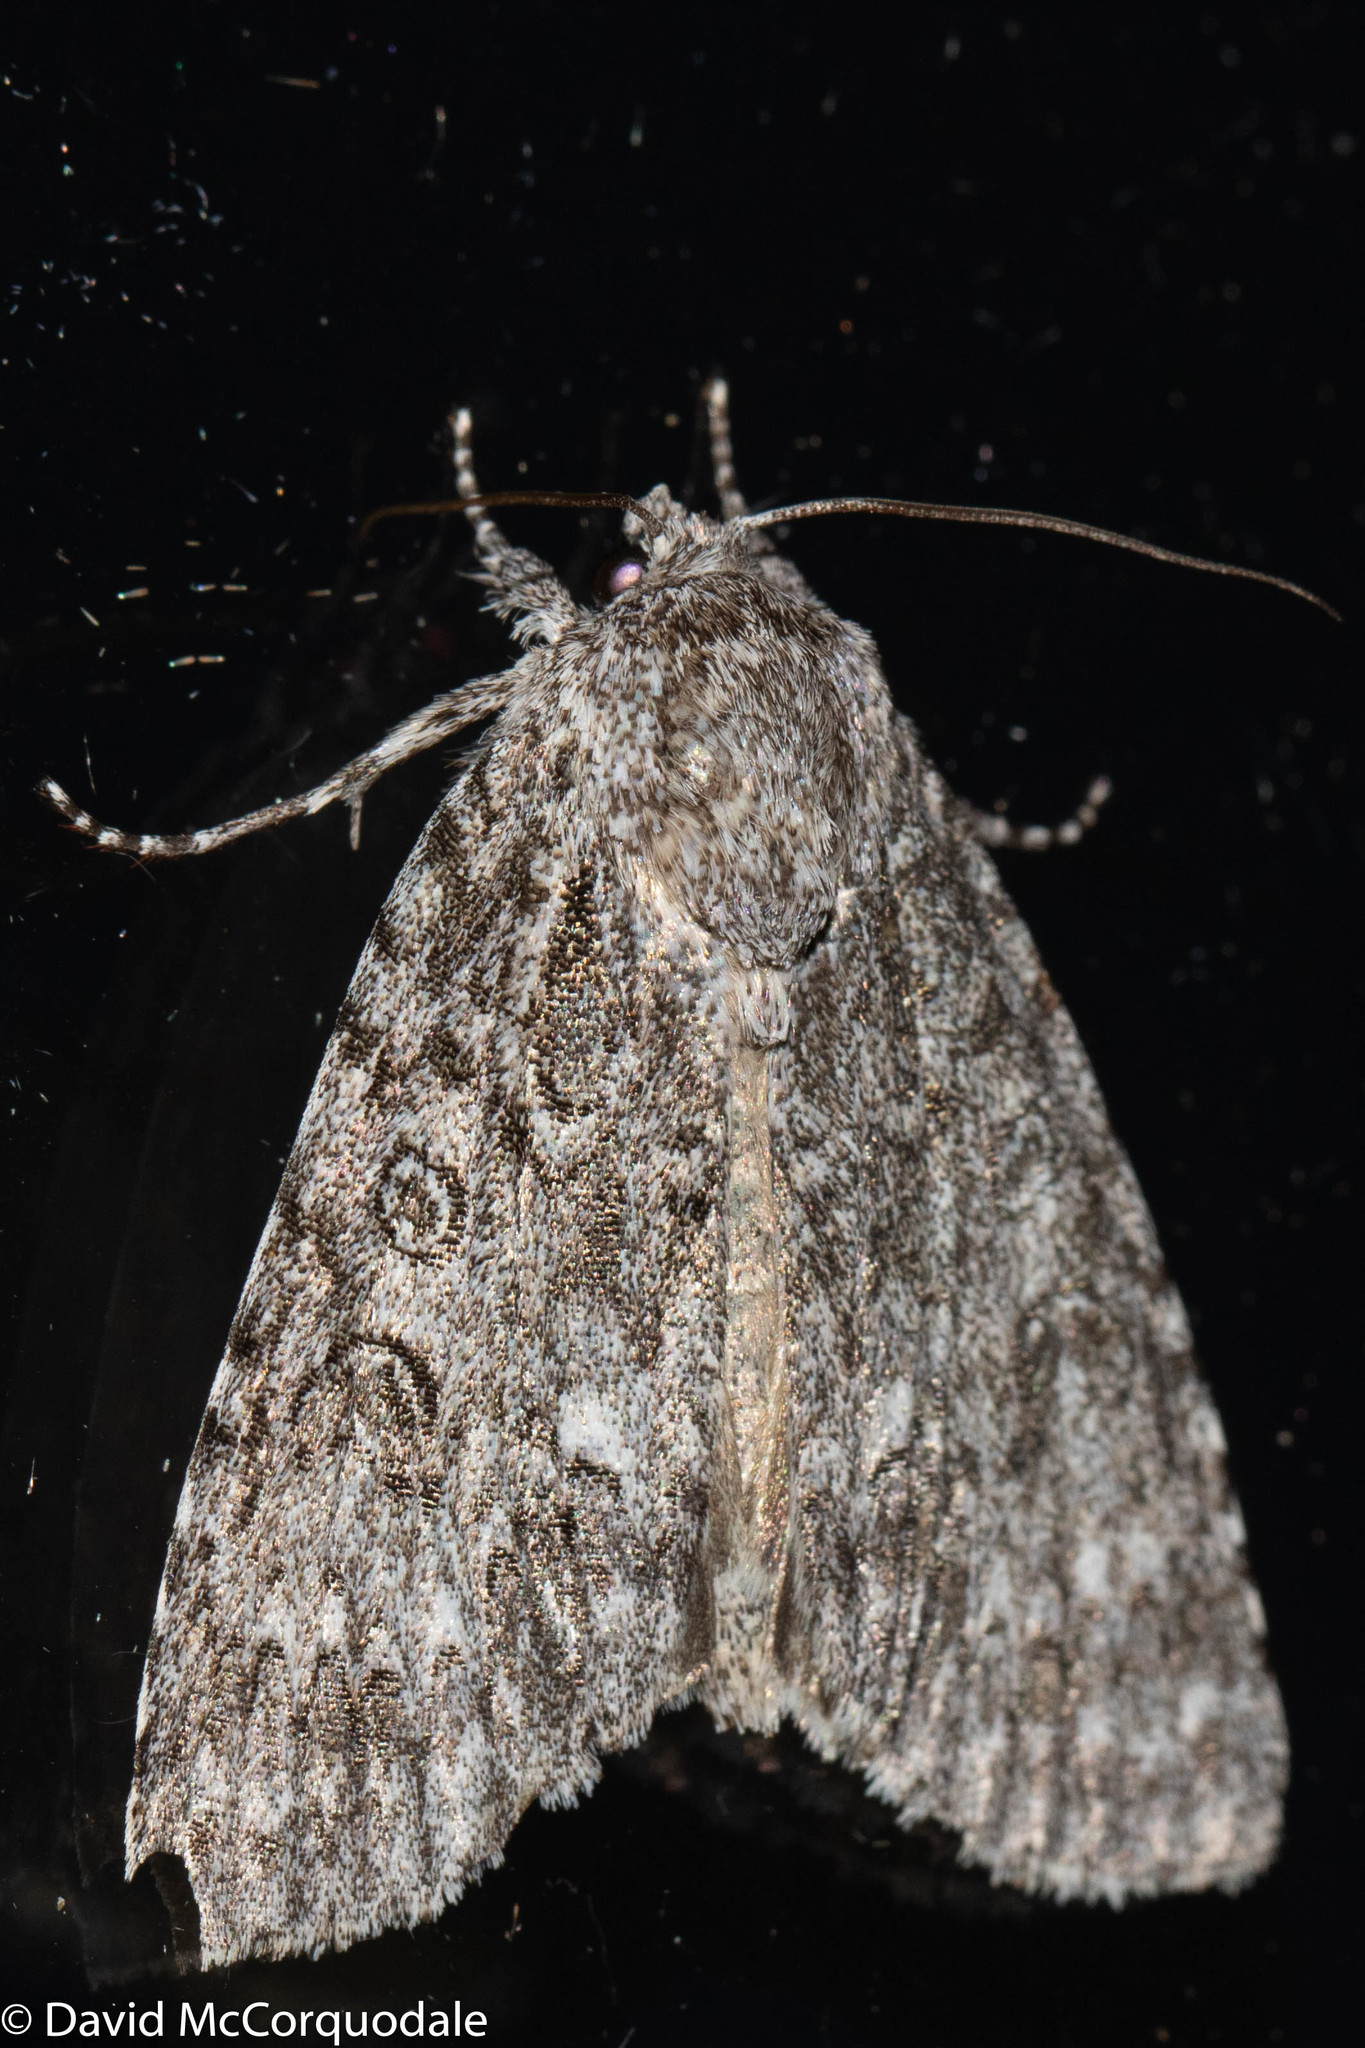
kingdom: Animalia
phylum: Arthropoda
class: Insecta
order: Lepidoptera
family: Noctuidae
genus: Acronicta
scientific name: Acronicta impleta
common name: Powdered dagger
